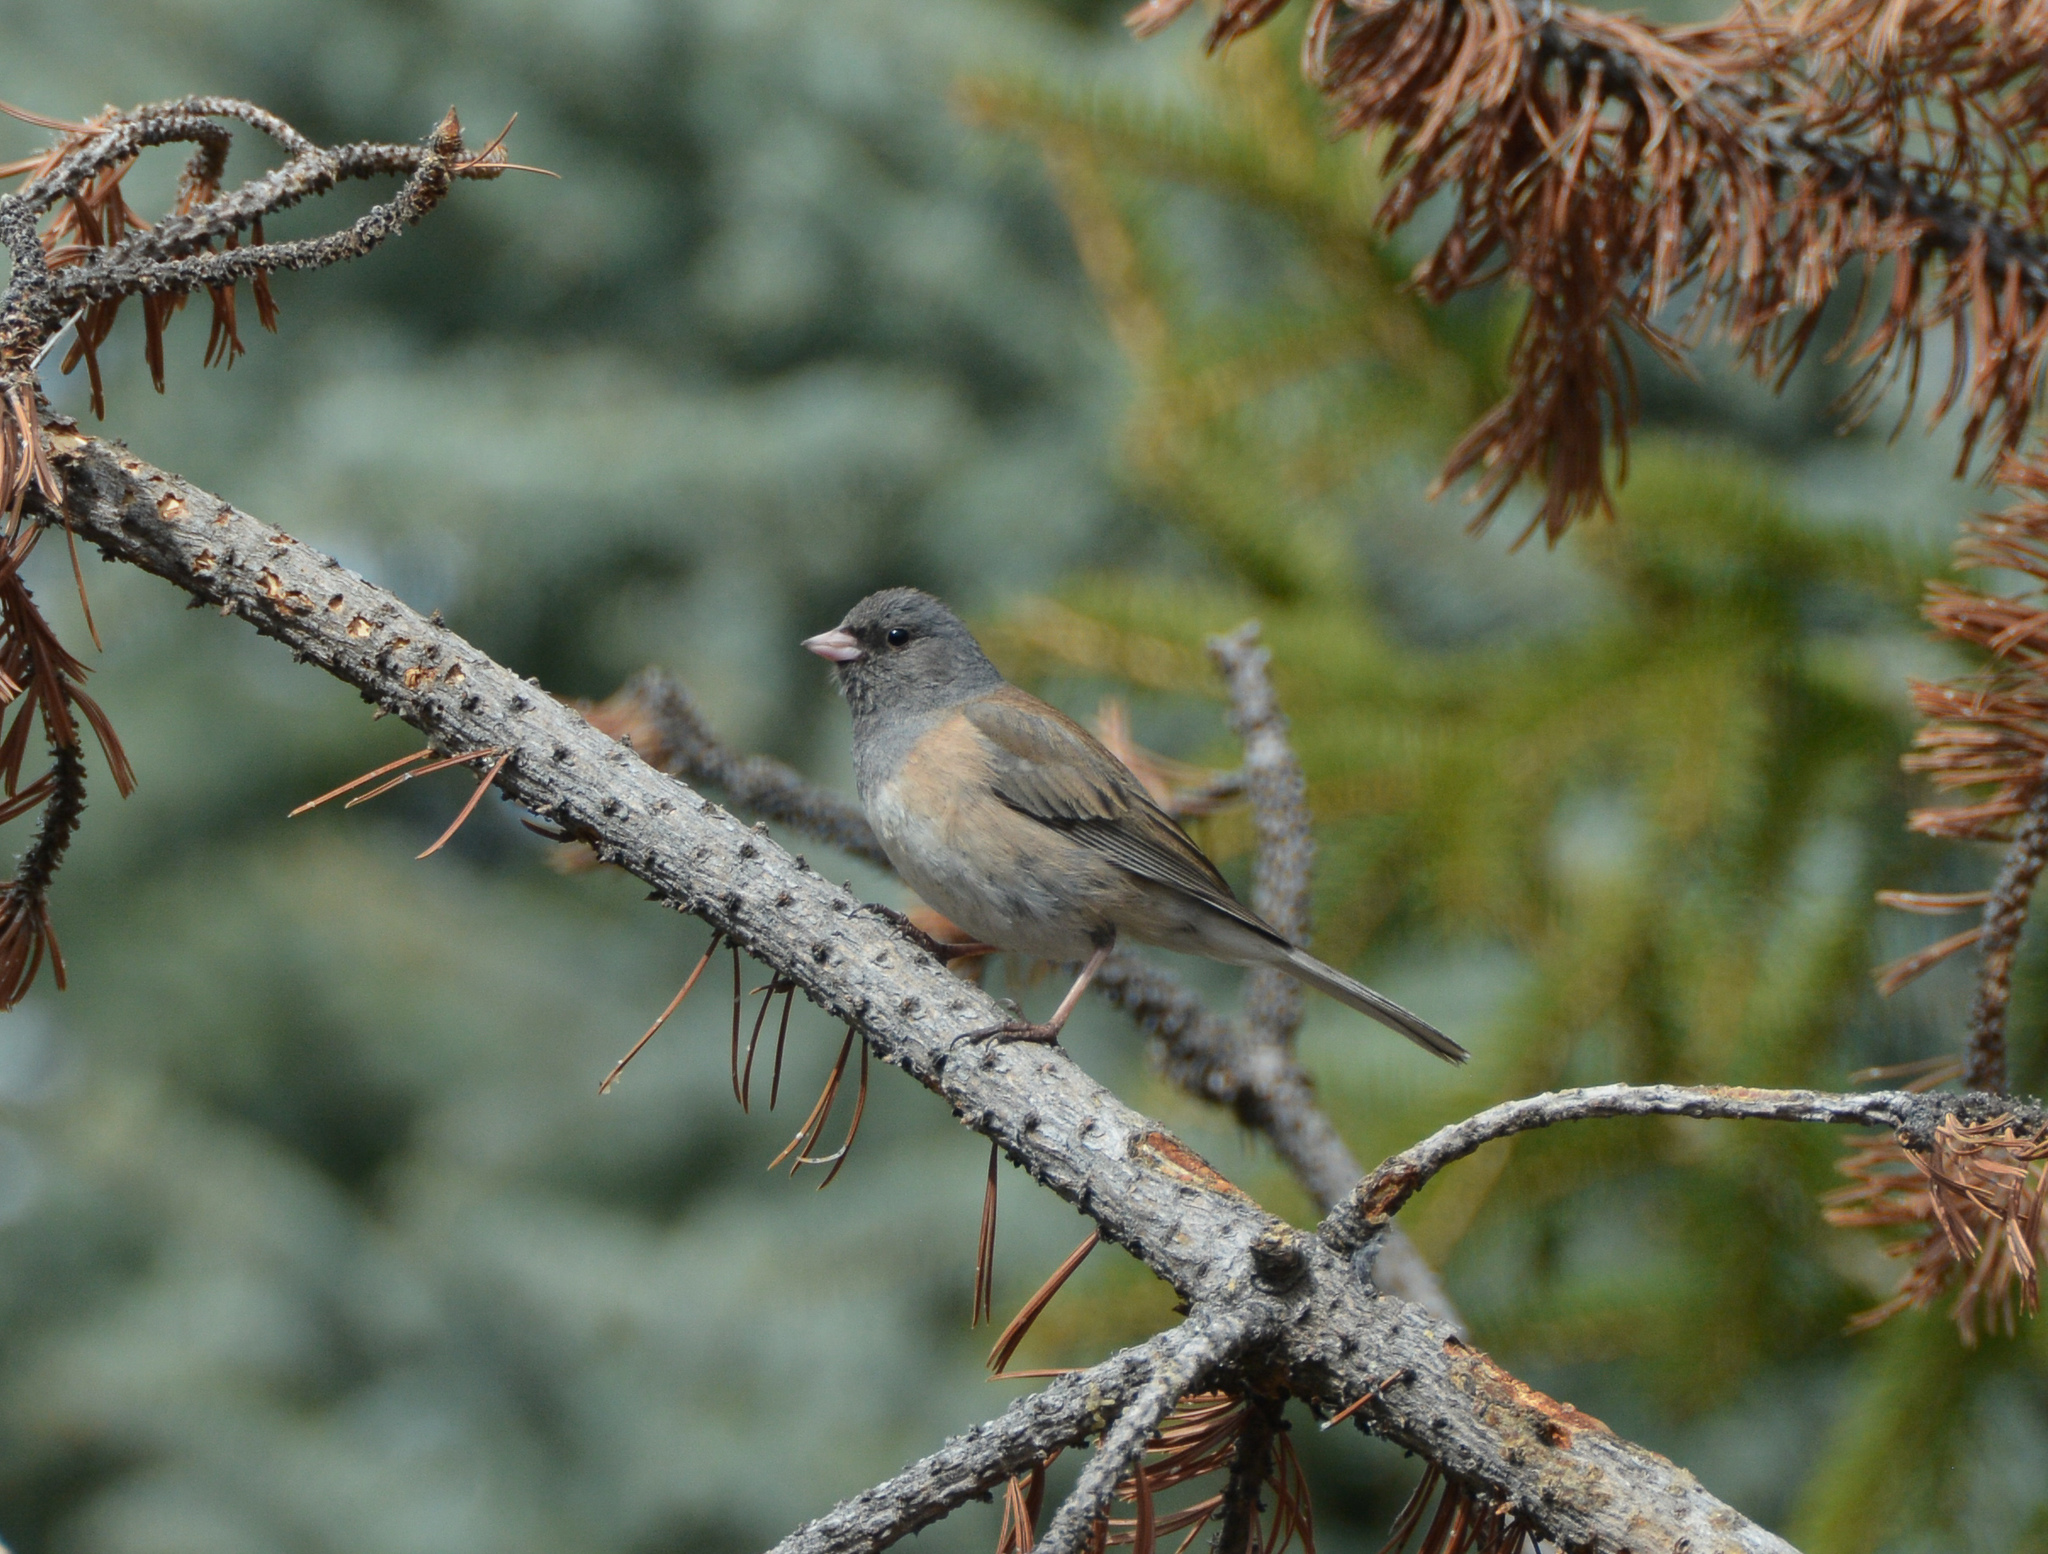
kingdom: Animalia
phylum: Chordata
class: Aves
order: Passeriformes
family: Passerellidae
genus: Junco
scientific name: Junco hyemalis
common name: Dark-eyed junco
